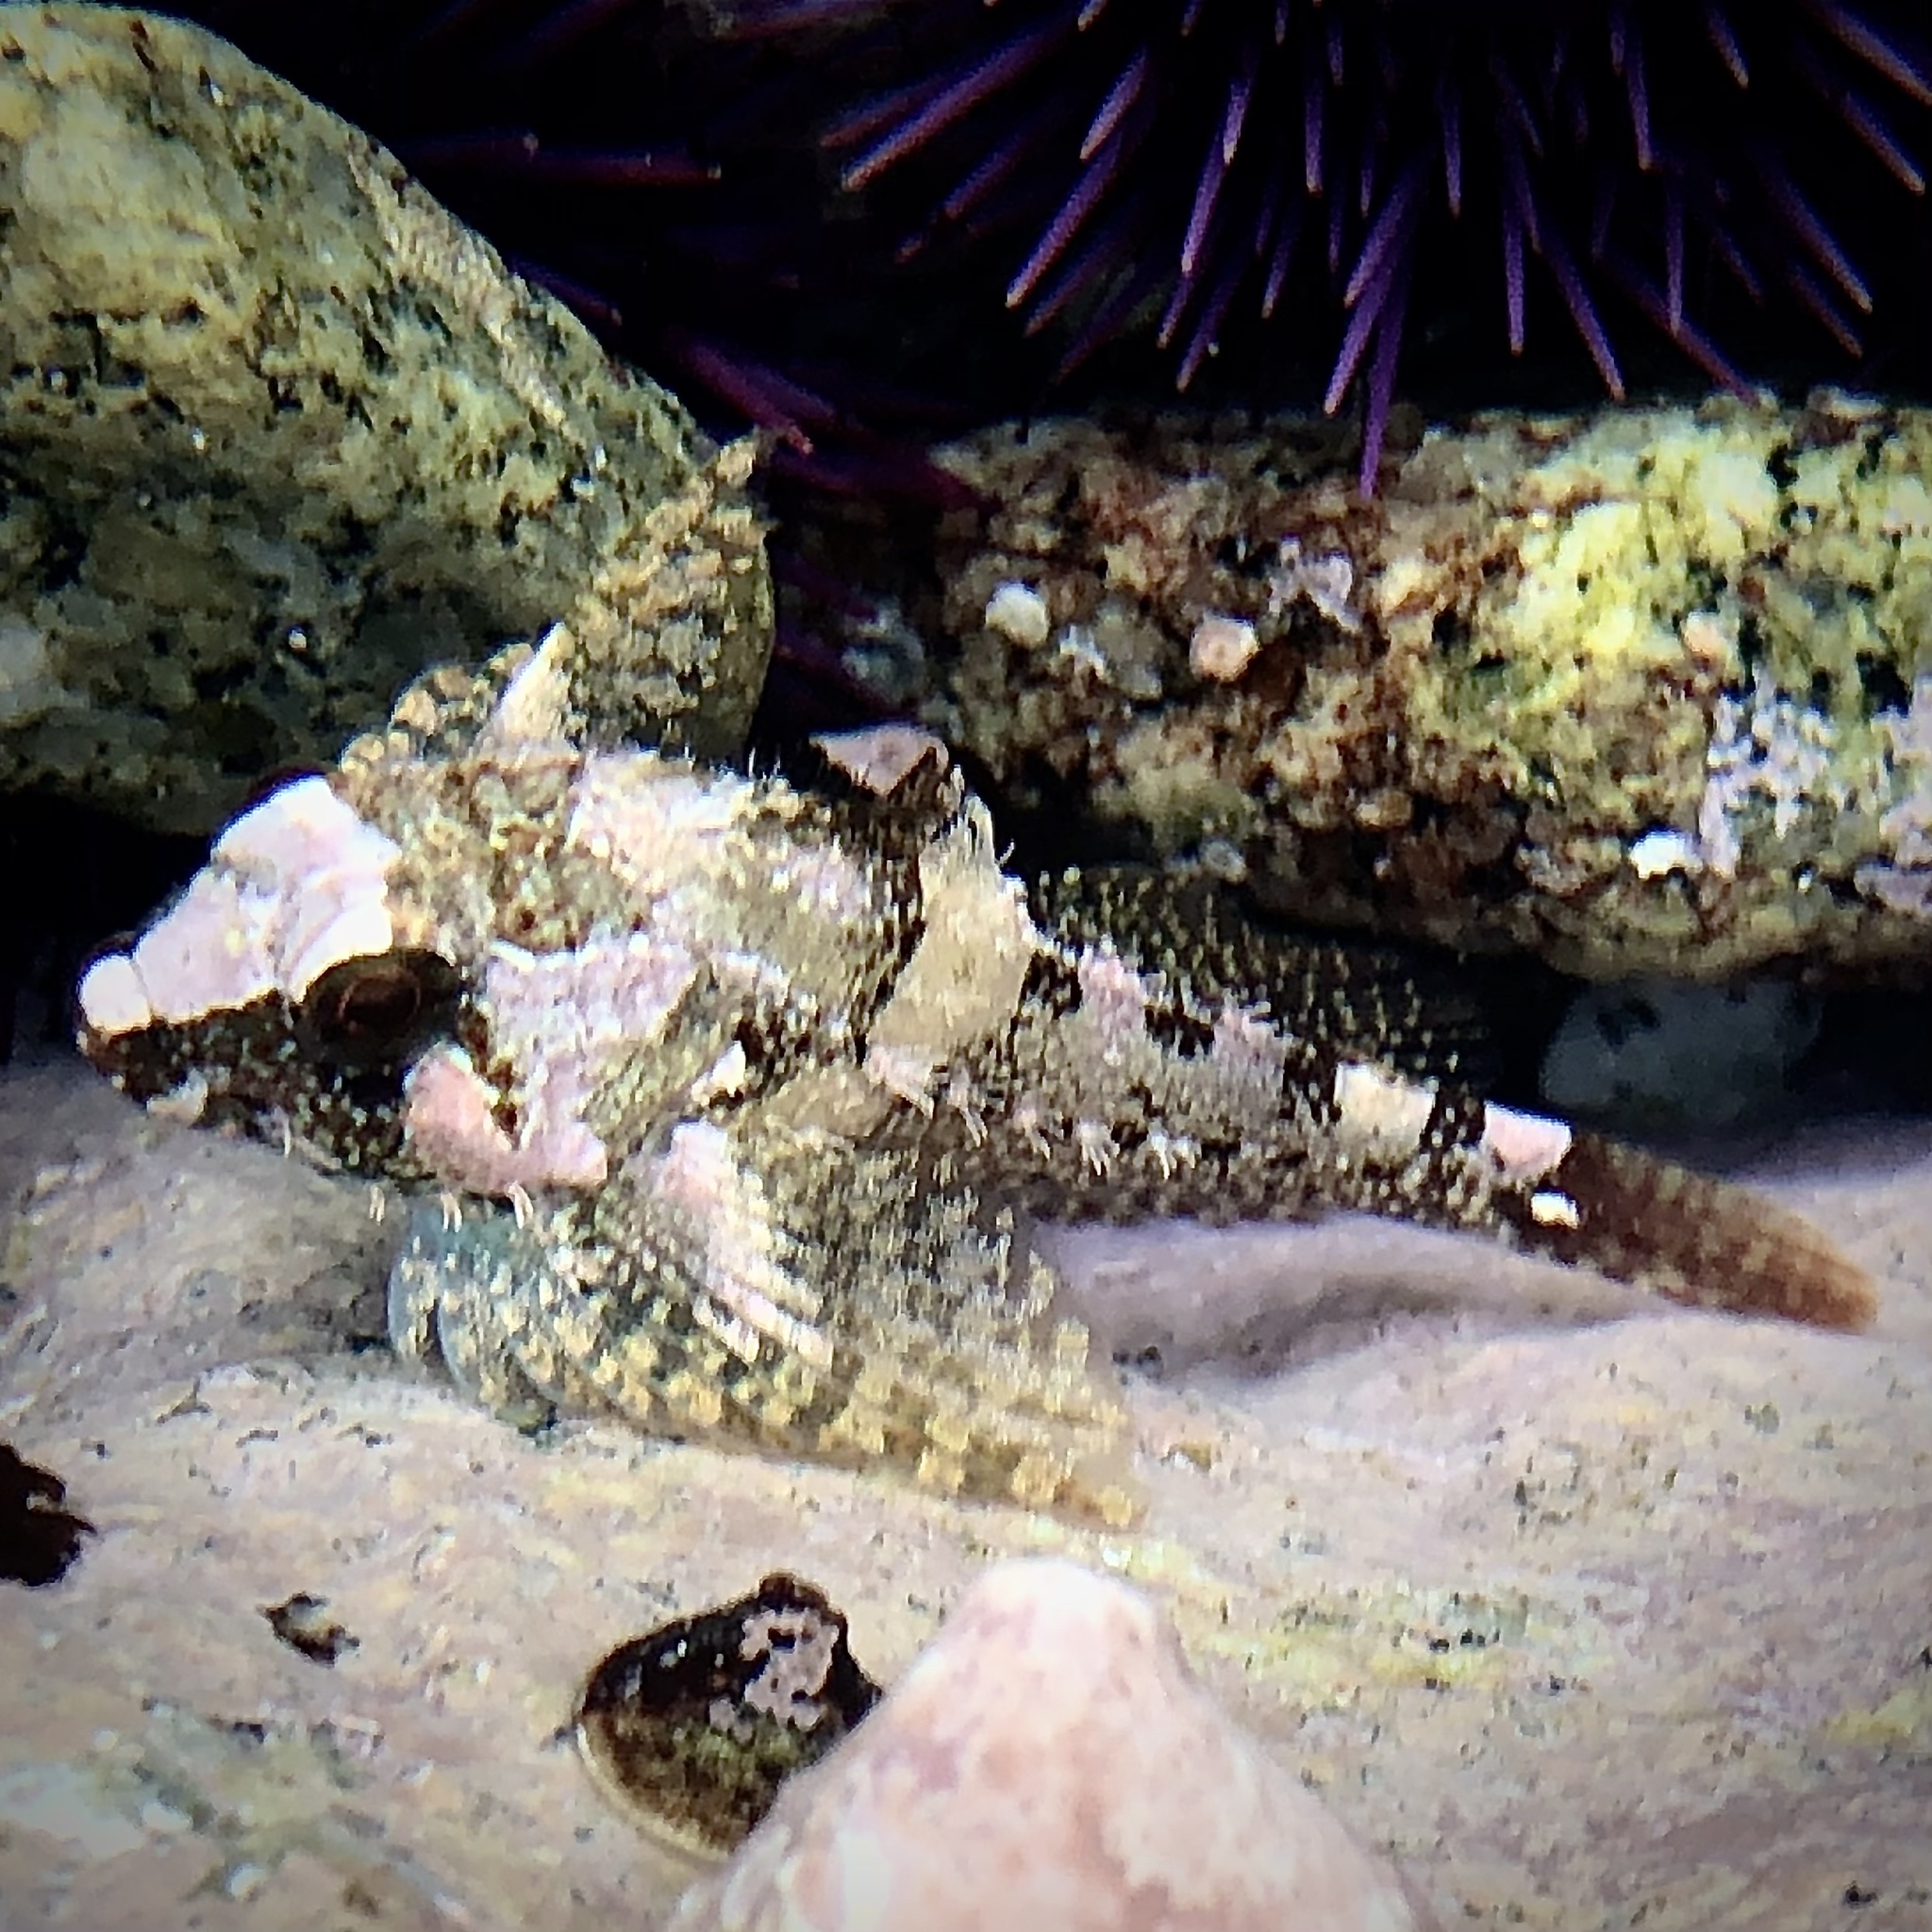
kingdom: Animalia
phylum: Chordata
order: Scorpaeniformes
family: Cottidae
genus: Oligocottus
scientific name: Oligocottus rubellio
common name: Rosy sculpin
